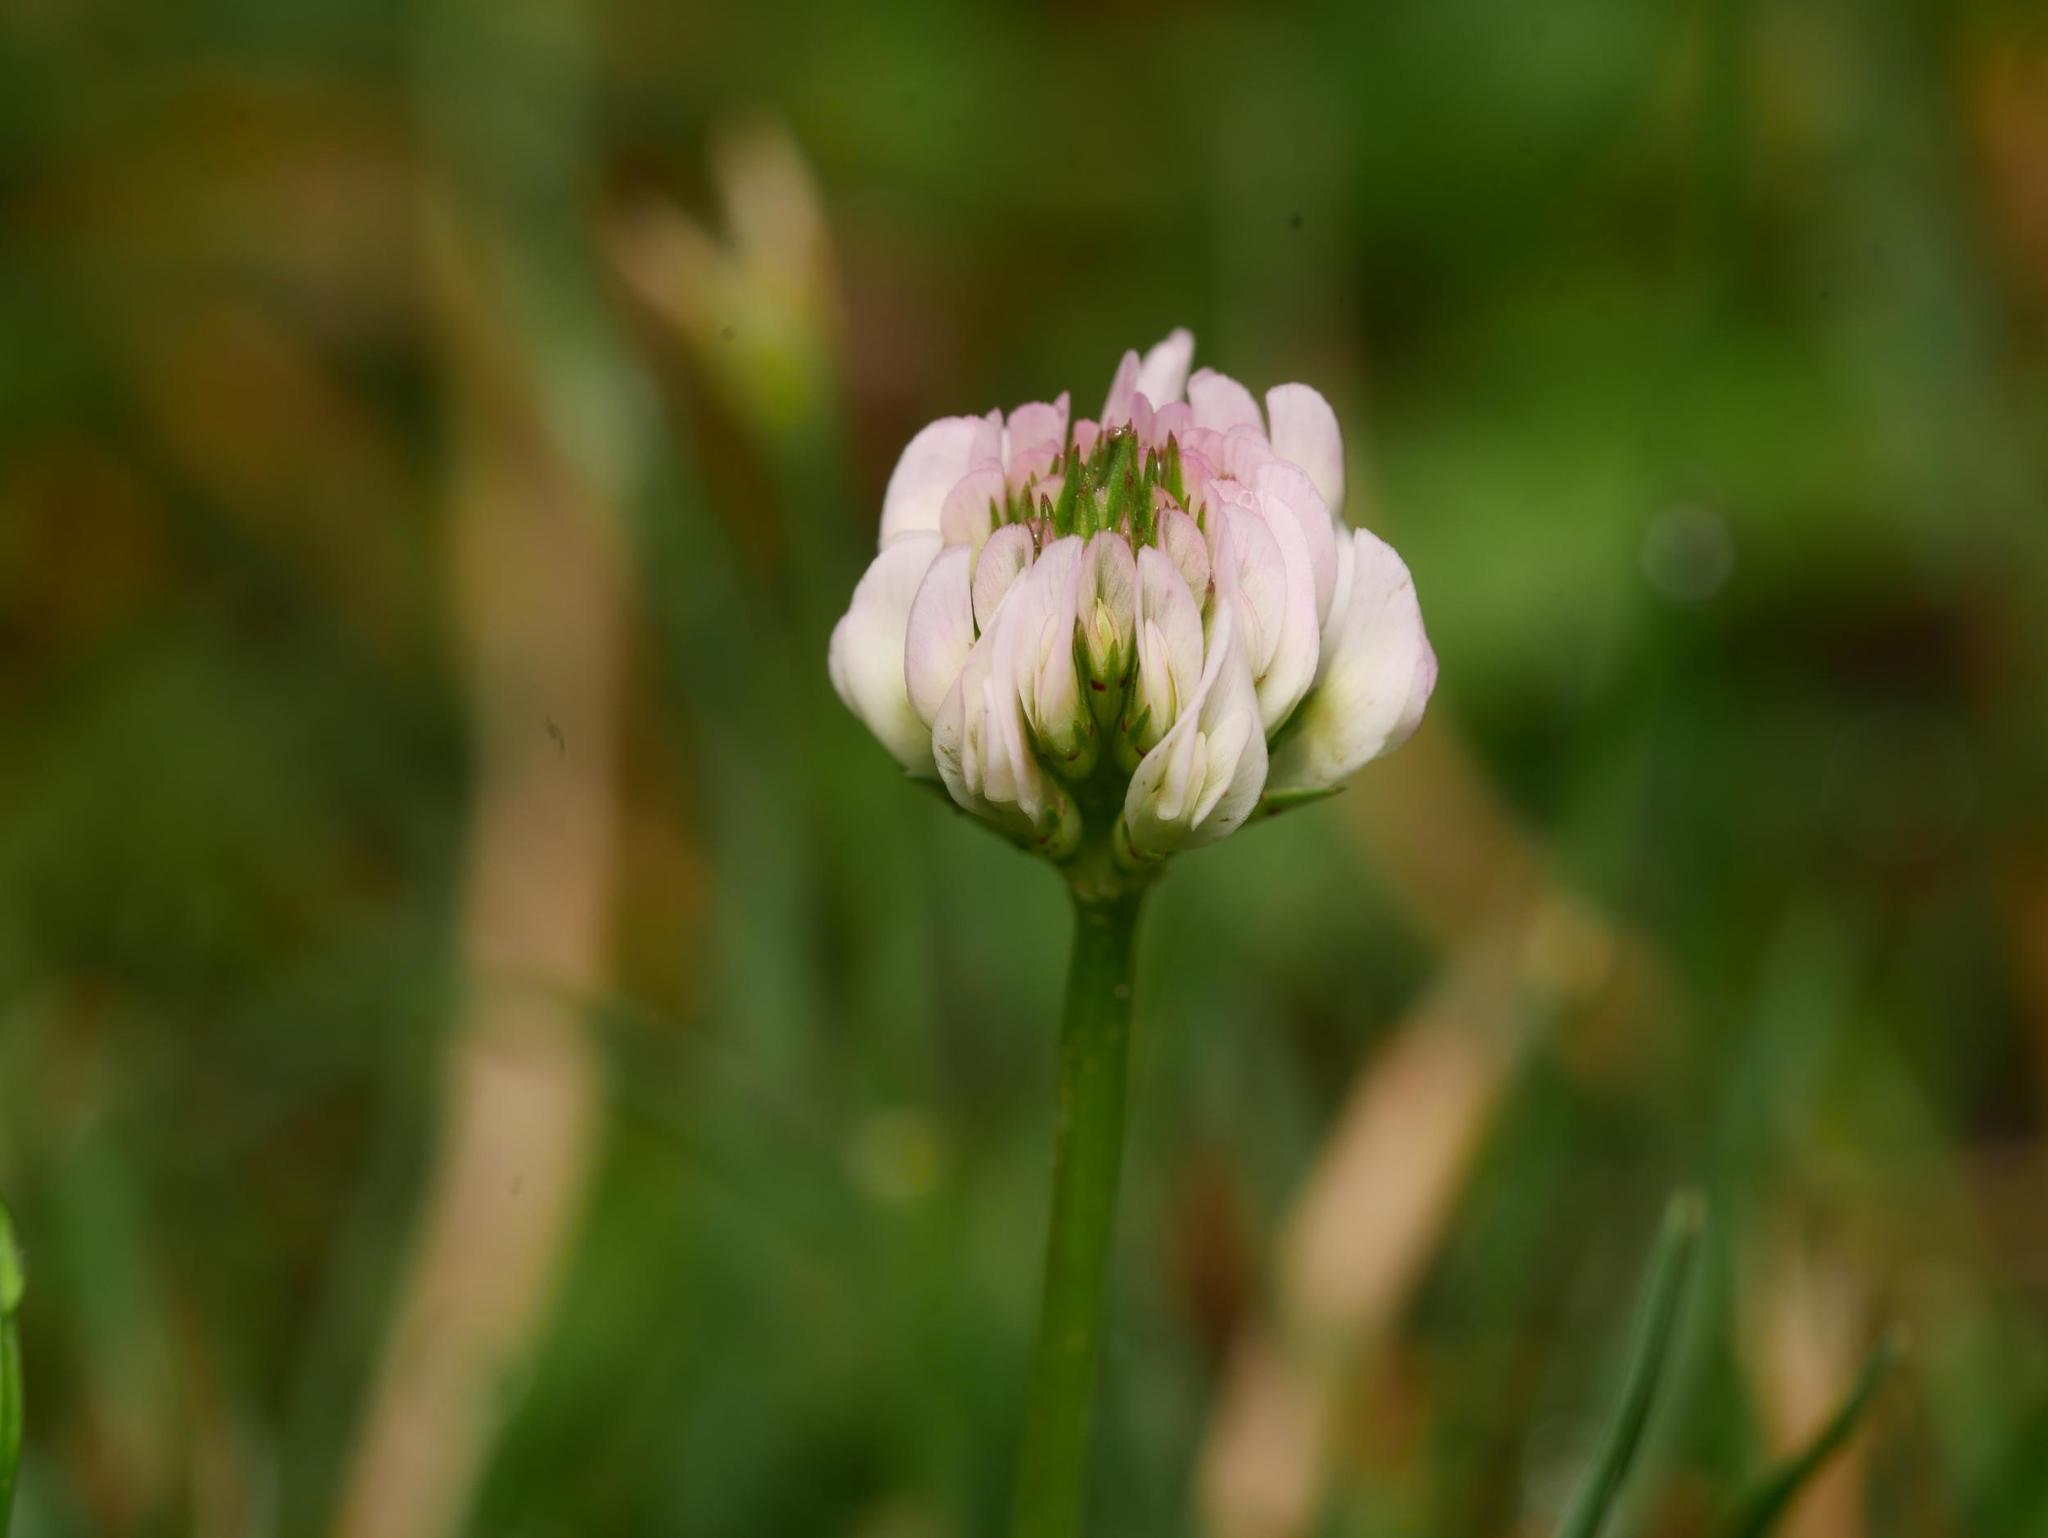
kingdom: Plantae
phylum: Tracheophyta
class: Magnoliopsida
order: Fabales
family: Fabaceae
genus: Trifolium
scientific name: Trifolium repens
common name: White clover
